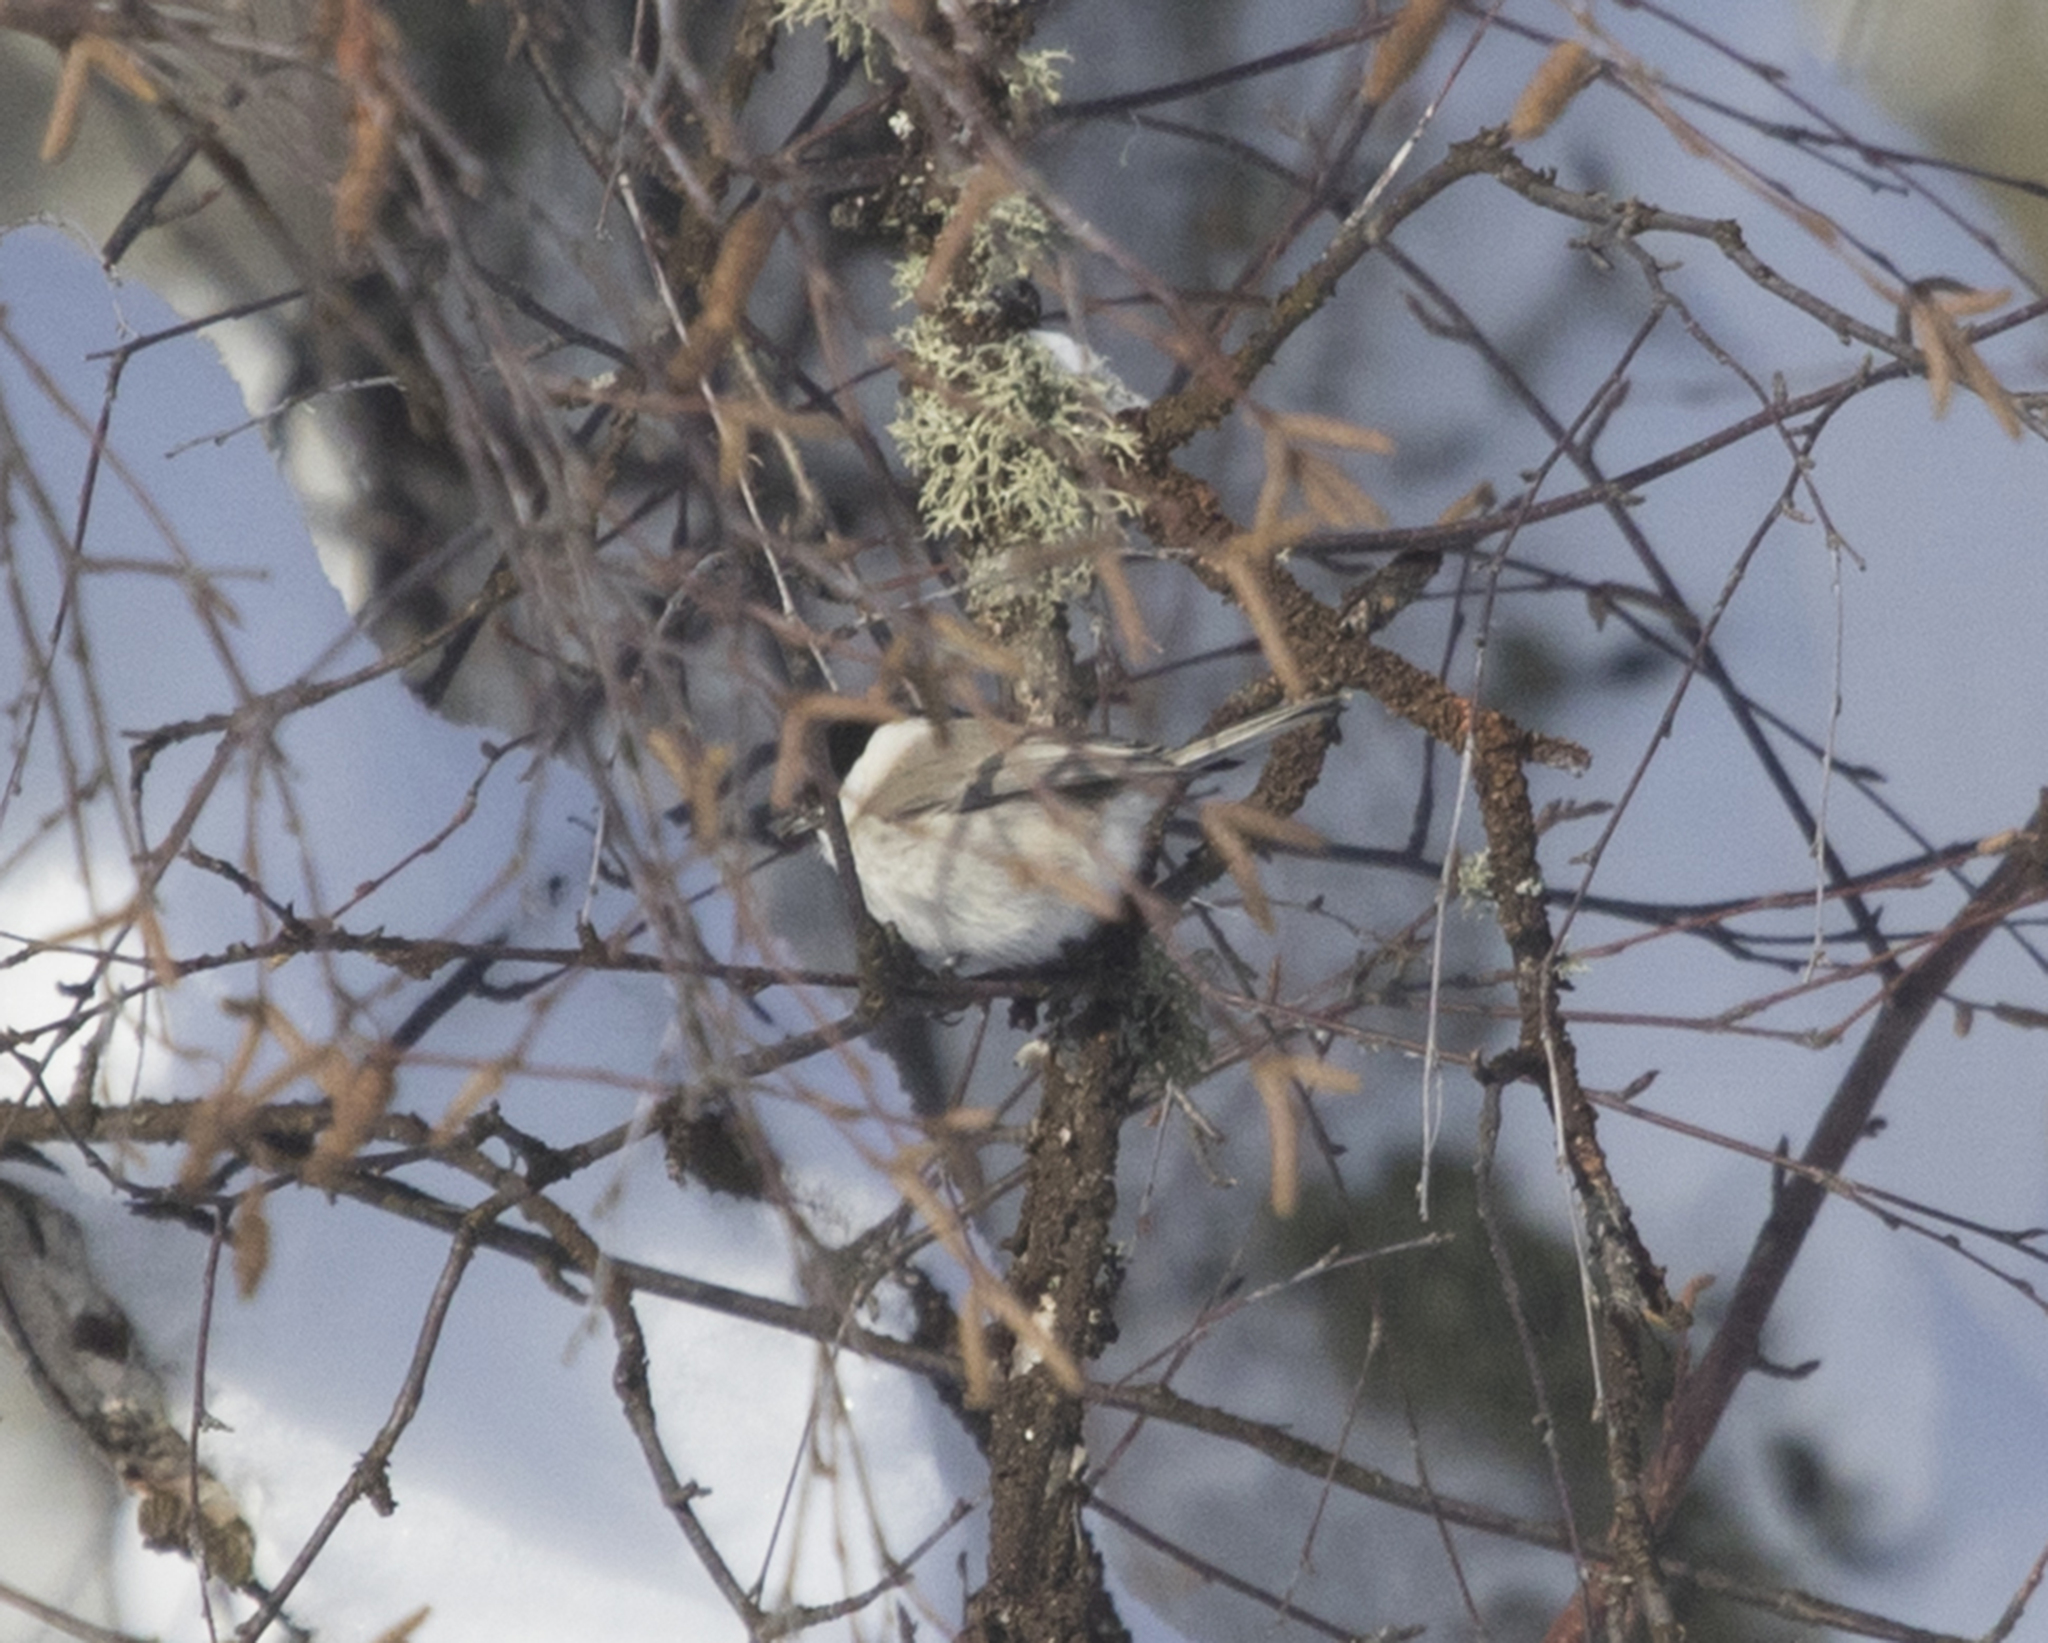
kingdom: Animalia
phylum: Chordata
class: Aves
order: Passeriformes
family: Paridae
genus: Poecile
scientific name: Poecile montanus
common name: Willow tit
